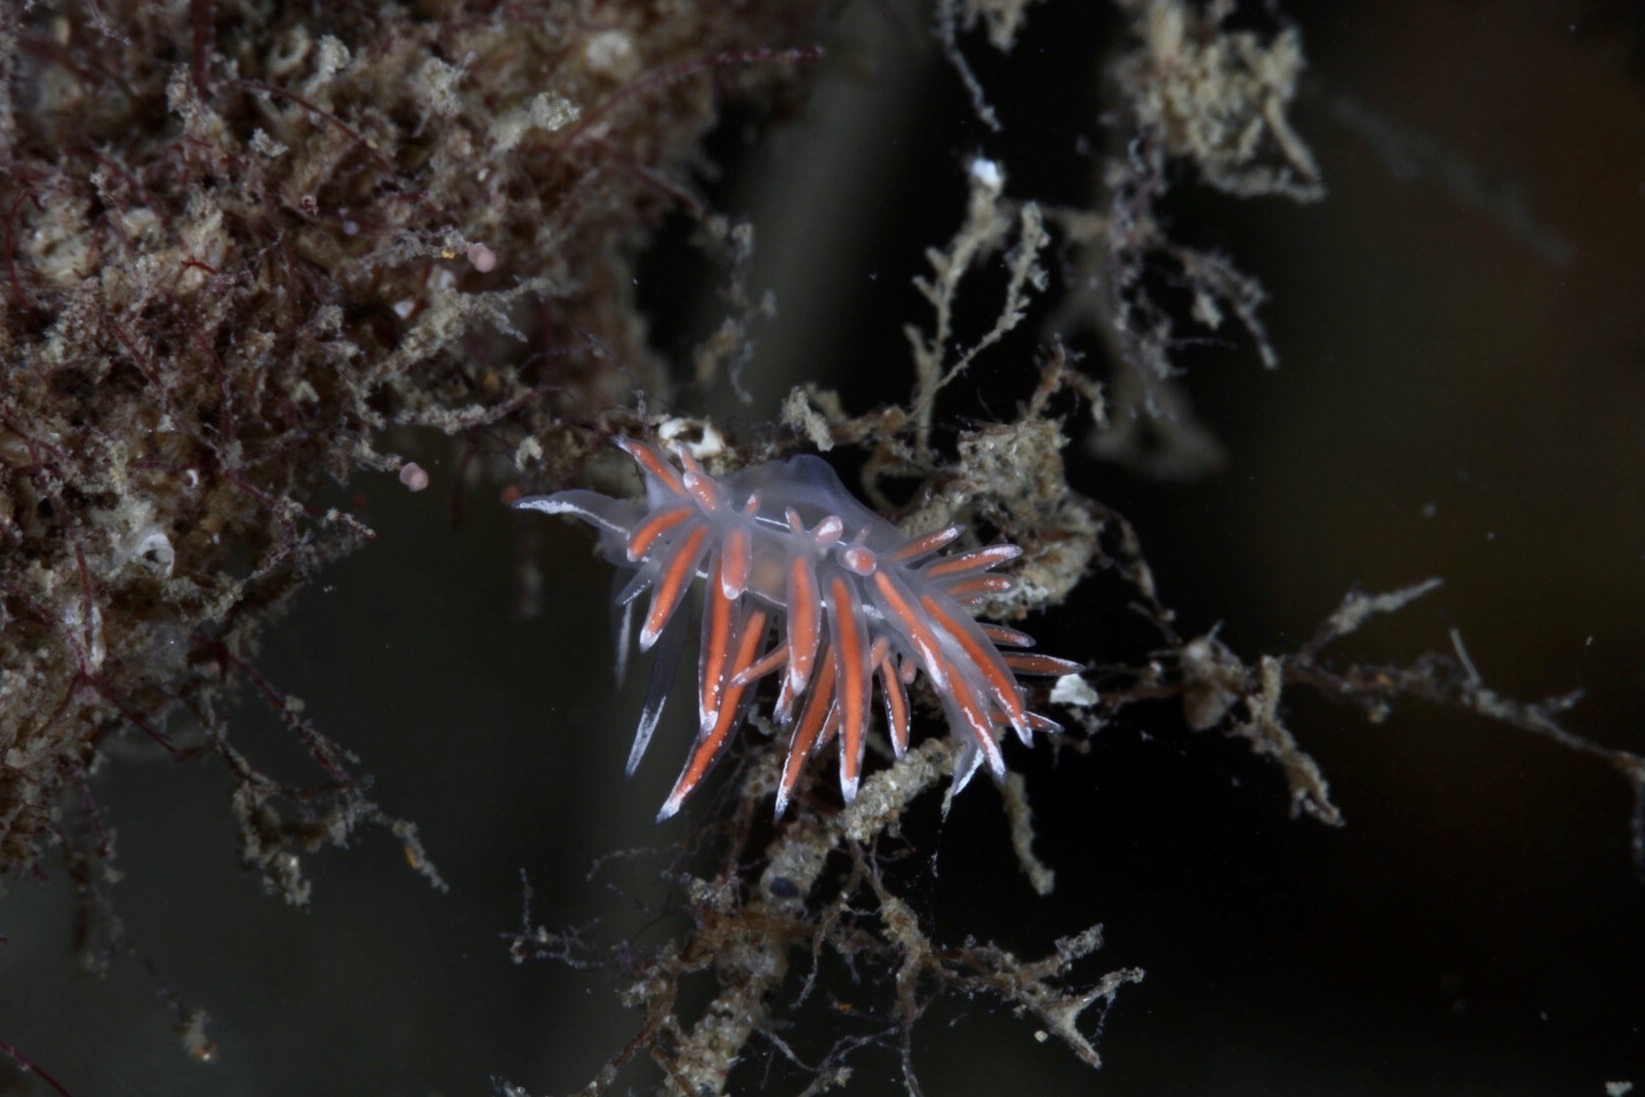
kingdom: Animalia
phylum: Mollusca
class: Gastropoda
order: Nudibranchia
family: Coryphellidae
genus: Coryphella
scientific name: Coryphella lineata
